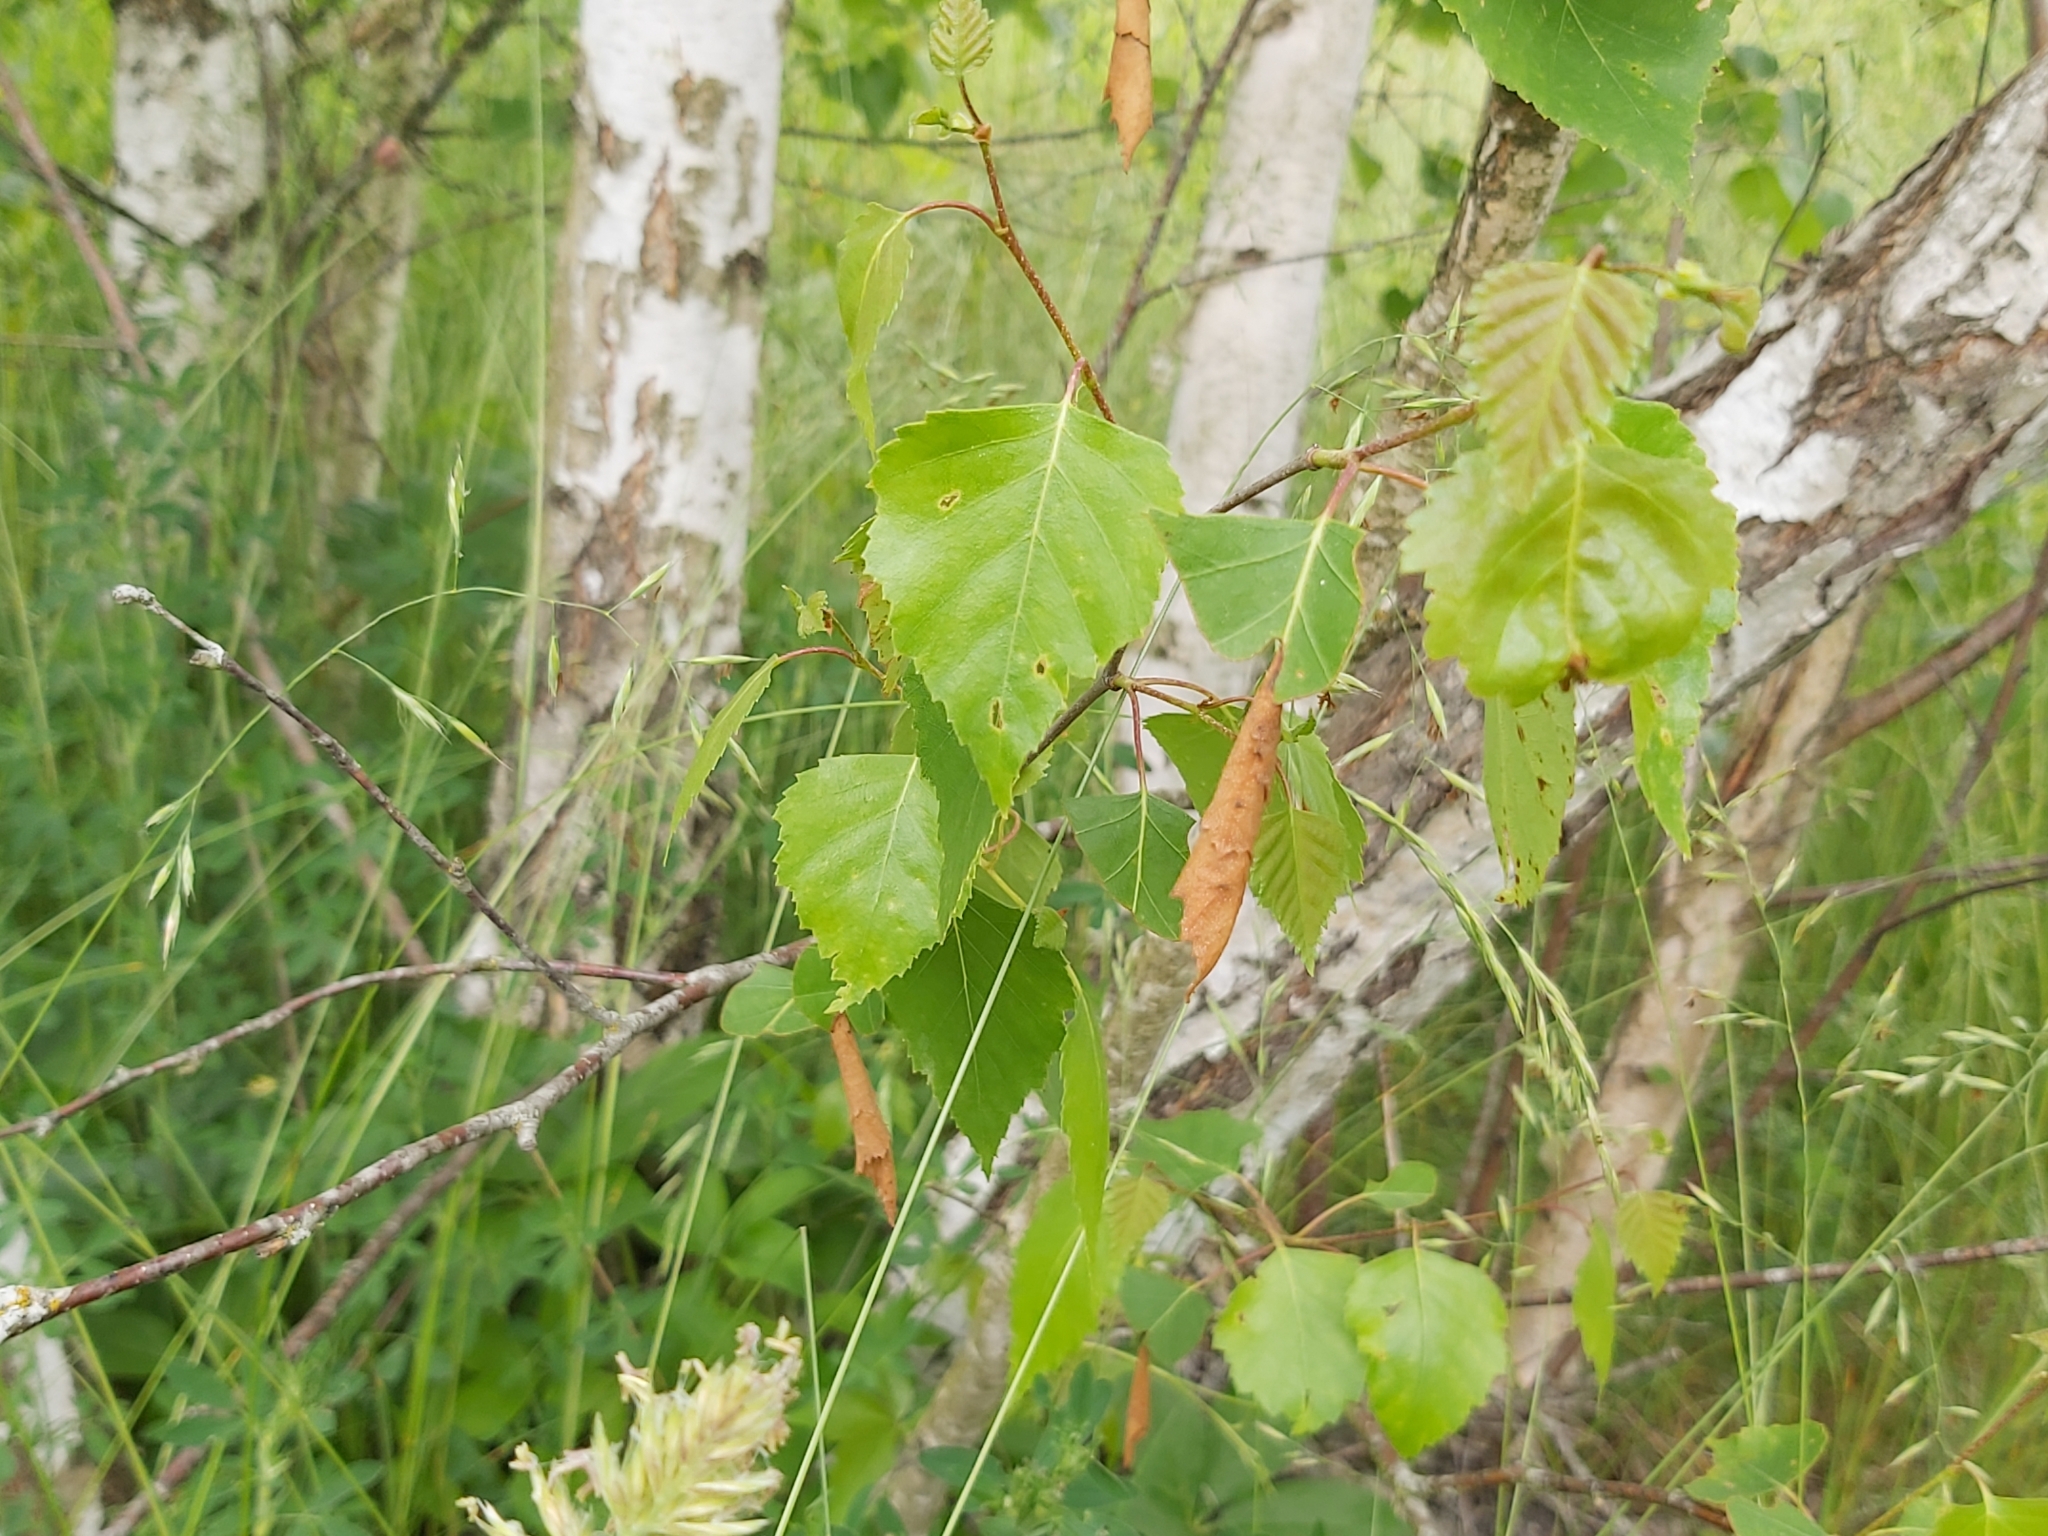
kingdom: Animalia
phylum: Arthropoda
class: Insecta
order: Coleoptera
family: Attelabidae
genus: Deporaus
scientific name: Deporaus betulae
